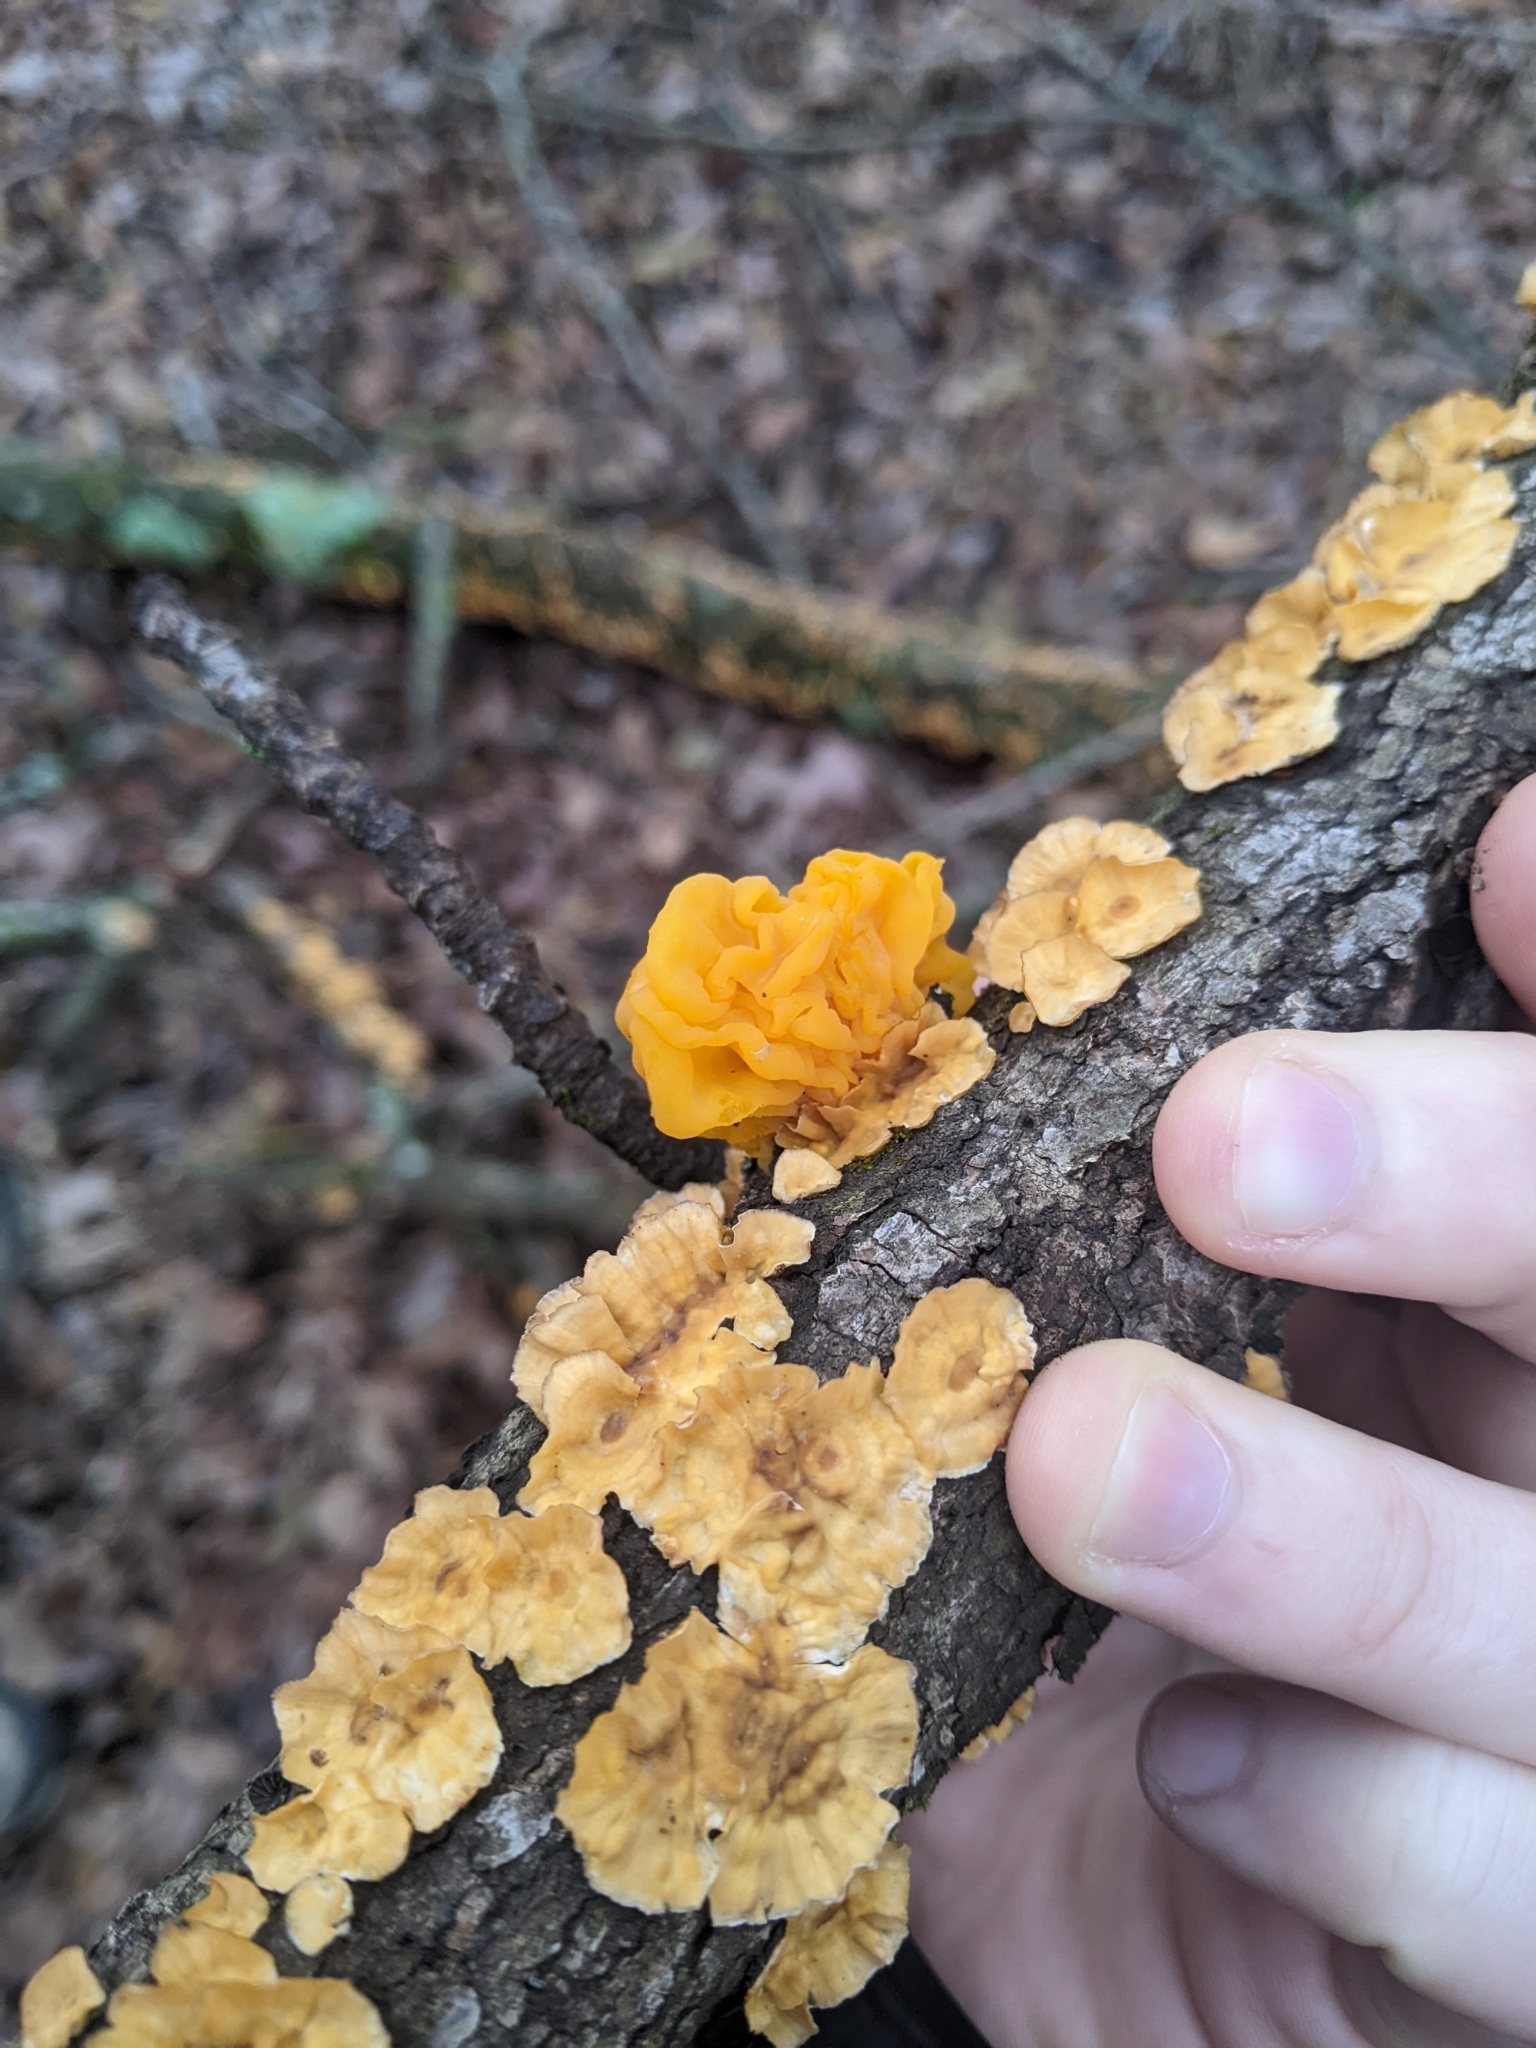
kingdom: Fungi
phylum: Basidiomycota
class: Tremellomycetes
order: Tremellales
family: Naemateliaceae
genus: Naematelia
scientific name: Naematelia aurantia
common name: Golden ear
